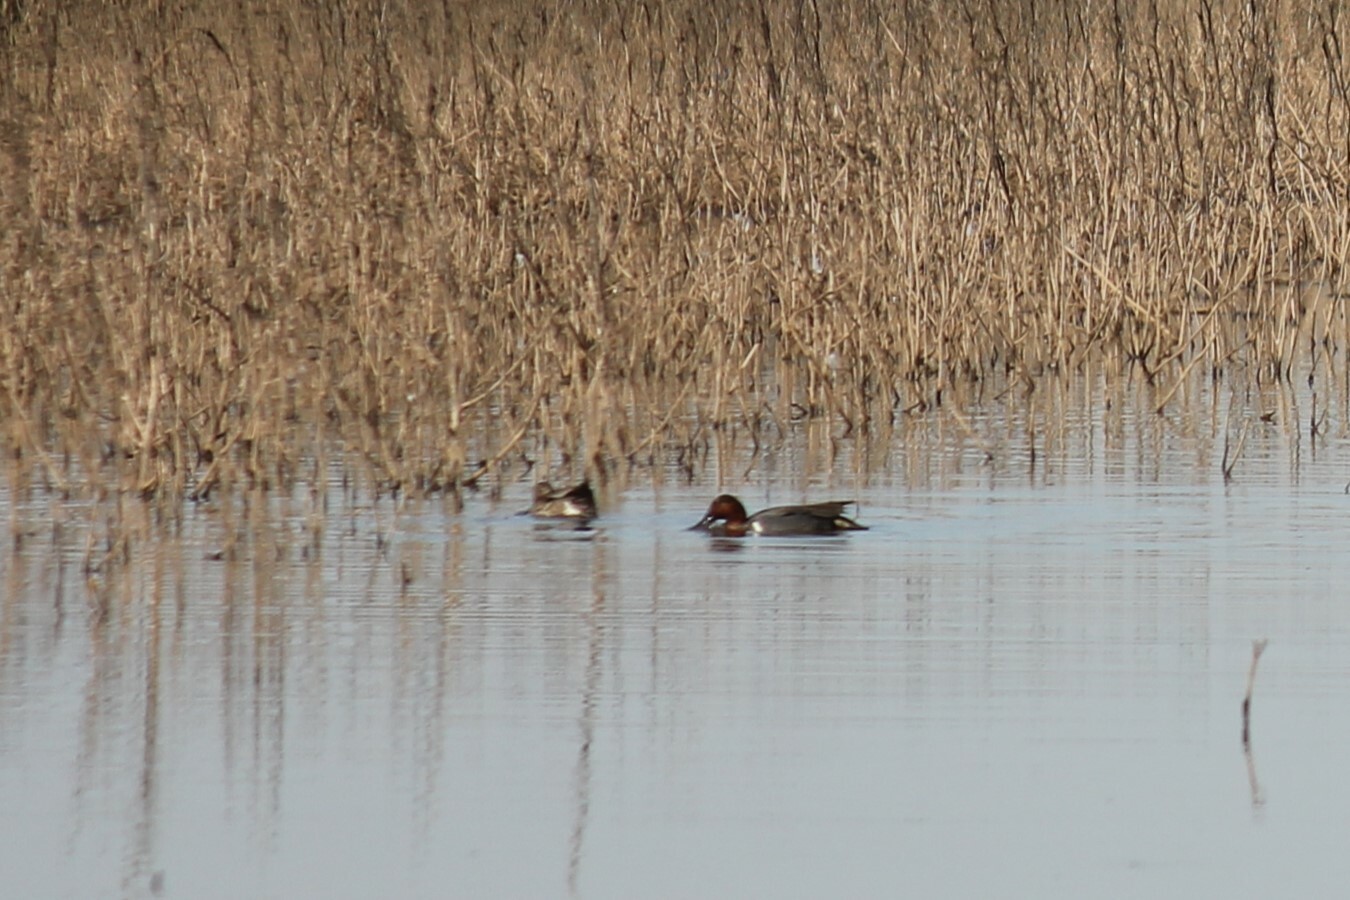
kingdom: Animalia
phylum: Chordata
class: Aves
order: Anseriformes
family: Anatidae
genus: Anas
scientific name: Anas crecca
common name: Eurasian teal
